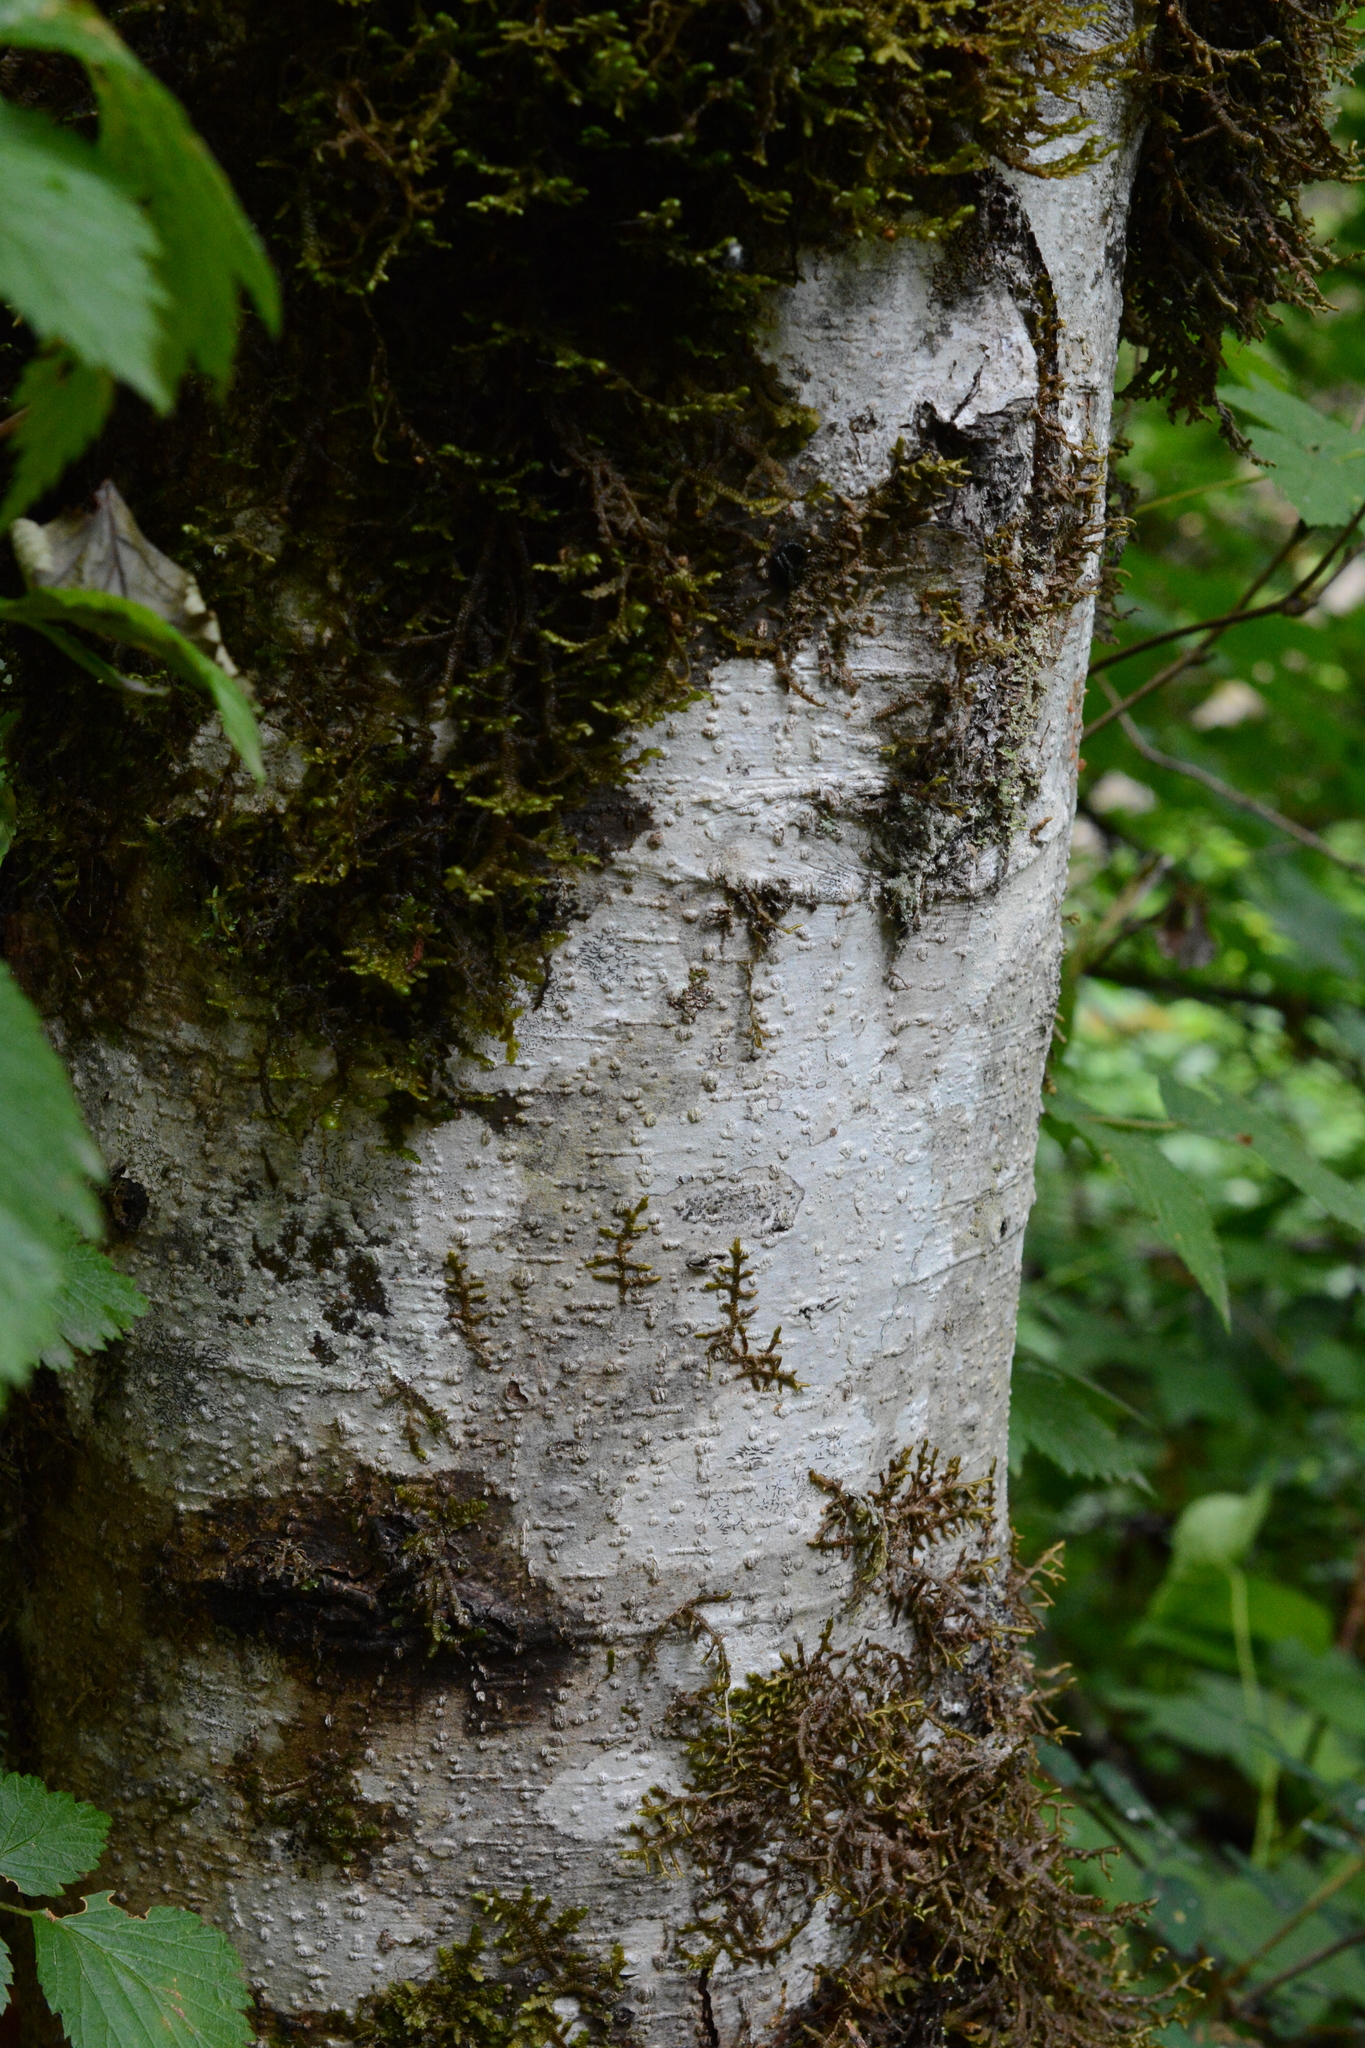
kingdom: Plantae
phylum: Tracheophyta
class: Magnoliopsida
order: Fagales
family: Betulaceae
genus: Alnus
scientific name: Alnus rubra
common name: Red alder
